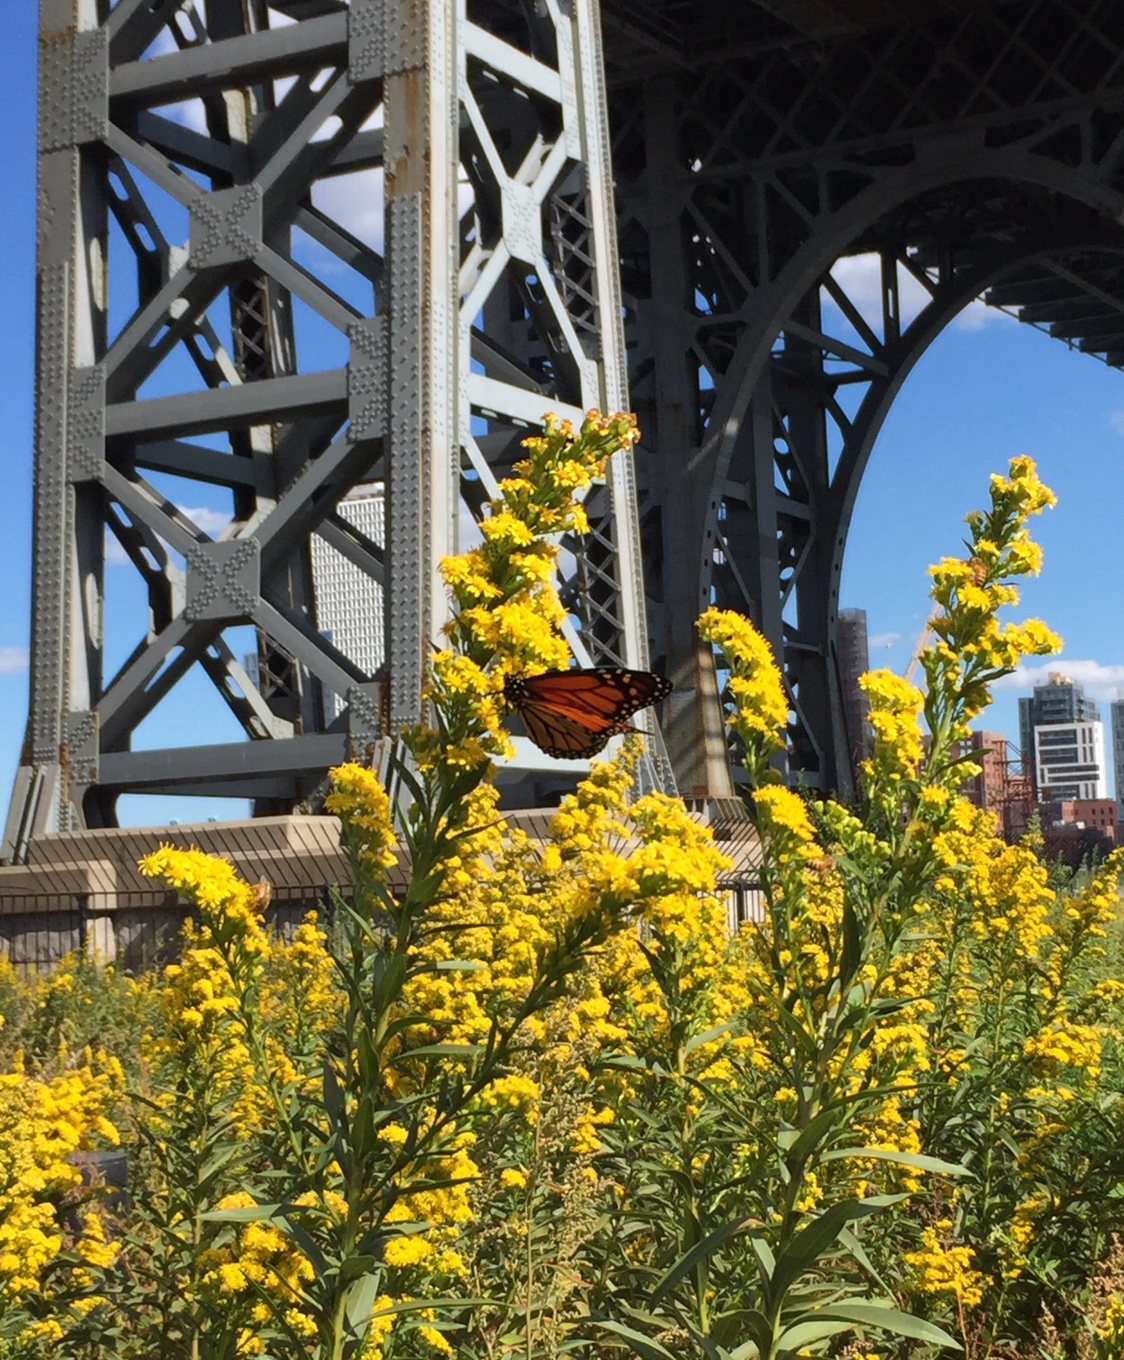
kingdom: Animalia
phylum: Arthropoda
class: Insecta
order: Lepidoptera
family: Nymphalidae
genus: Danaus
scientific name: Danaus plexippus
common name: Monarch
